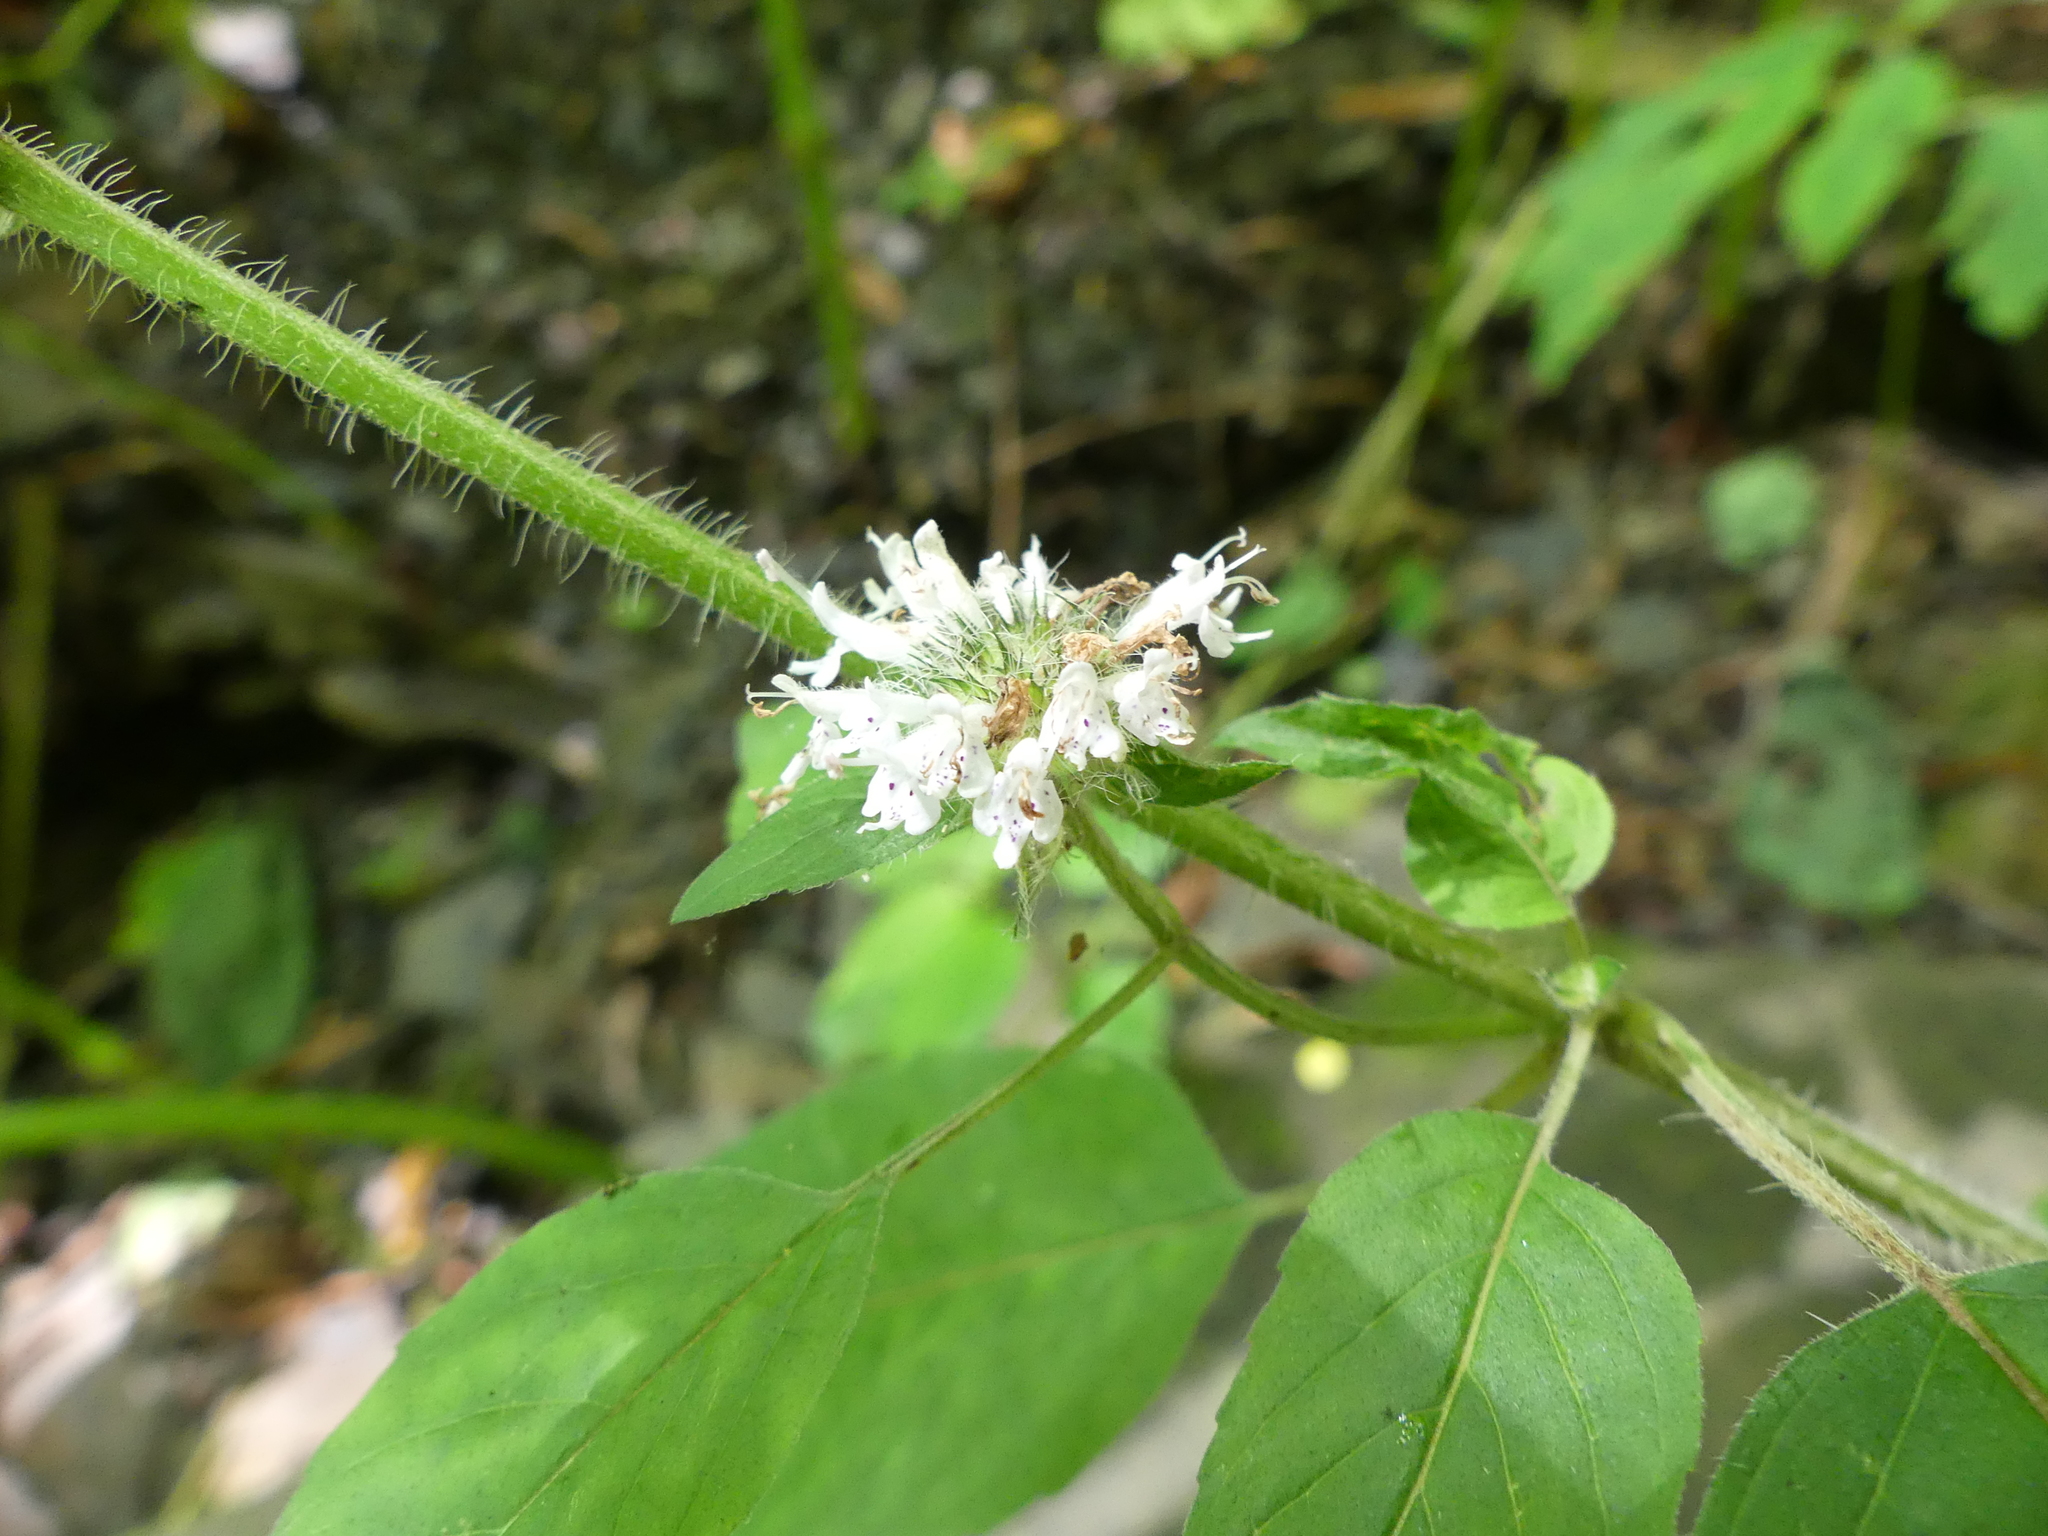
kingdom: Plantae
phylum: Tracheophyta
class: Magnoliopsida
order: Lamiales
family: Lamiaceae
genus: Blephilia
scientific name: Blephilia hirsuta
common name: Hairy blephilia
